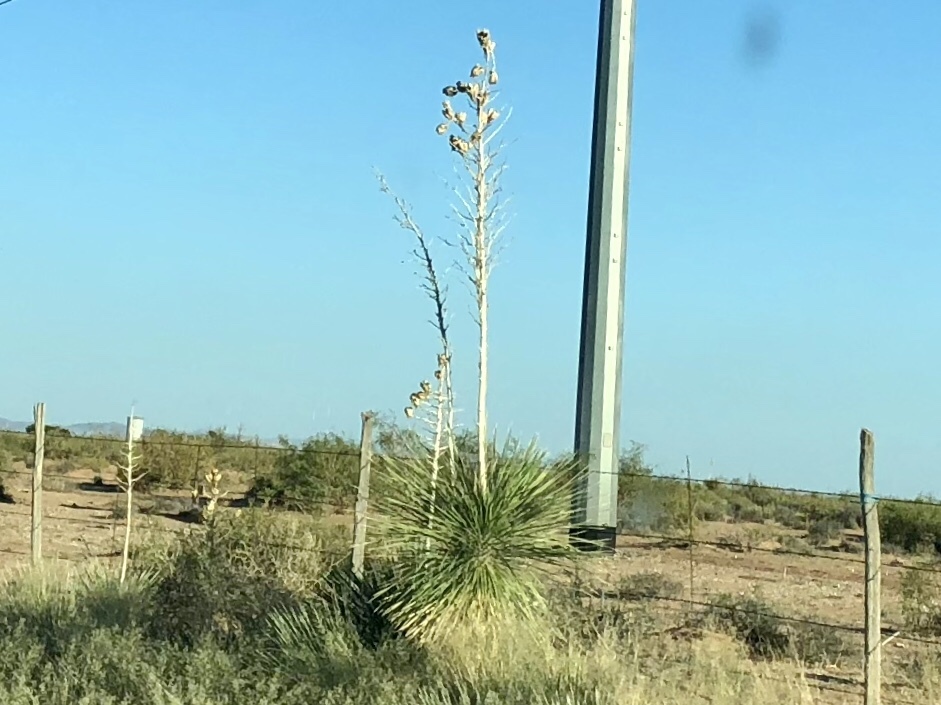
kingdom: Plantae
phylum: Tracheophyta
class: Liliopsida
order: Asparagales
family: Asparagaceae
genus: Yucca
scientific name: Yucca elata
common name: Palmella
